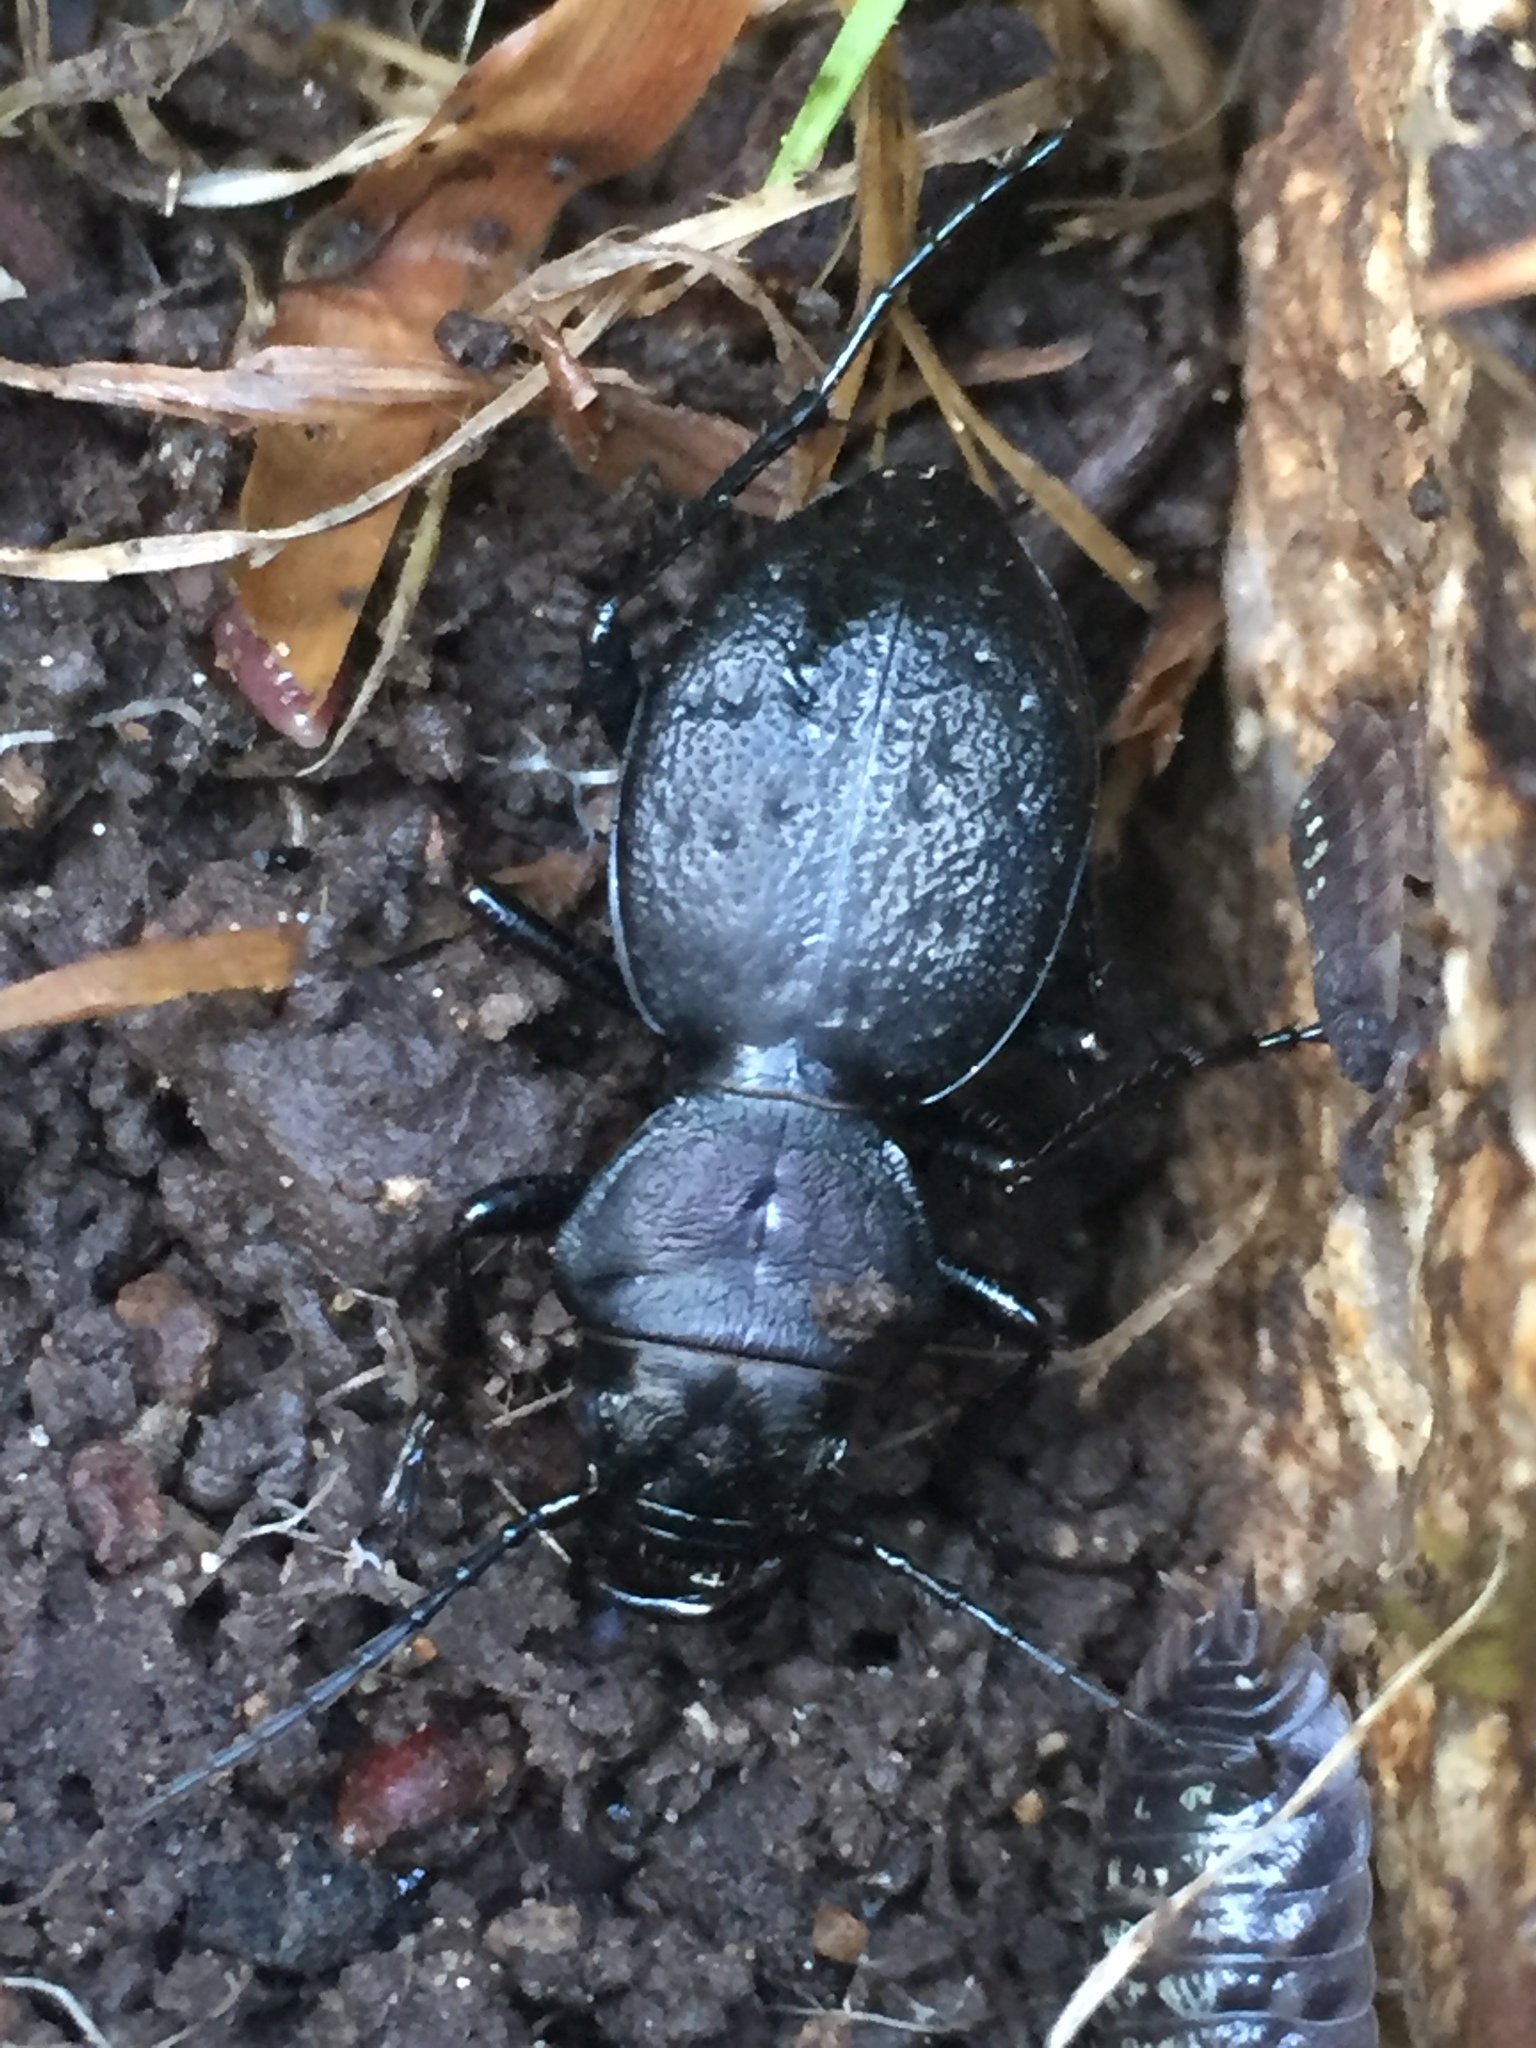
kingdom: Animalia
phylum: Arthropoda
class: Insecta
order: Coleoptera
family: Carabidae
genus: Omus
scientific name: Omus dejeanii
